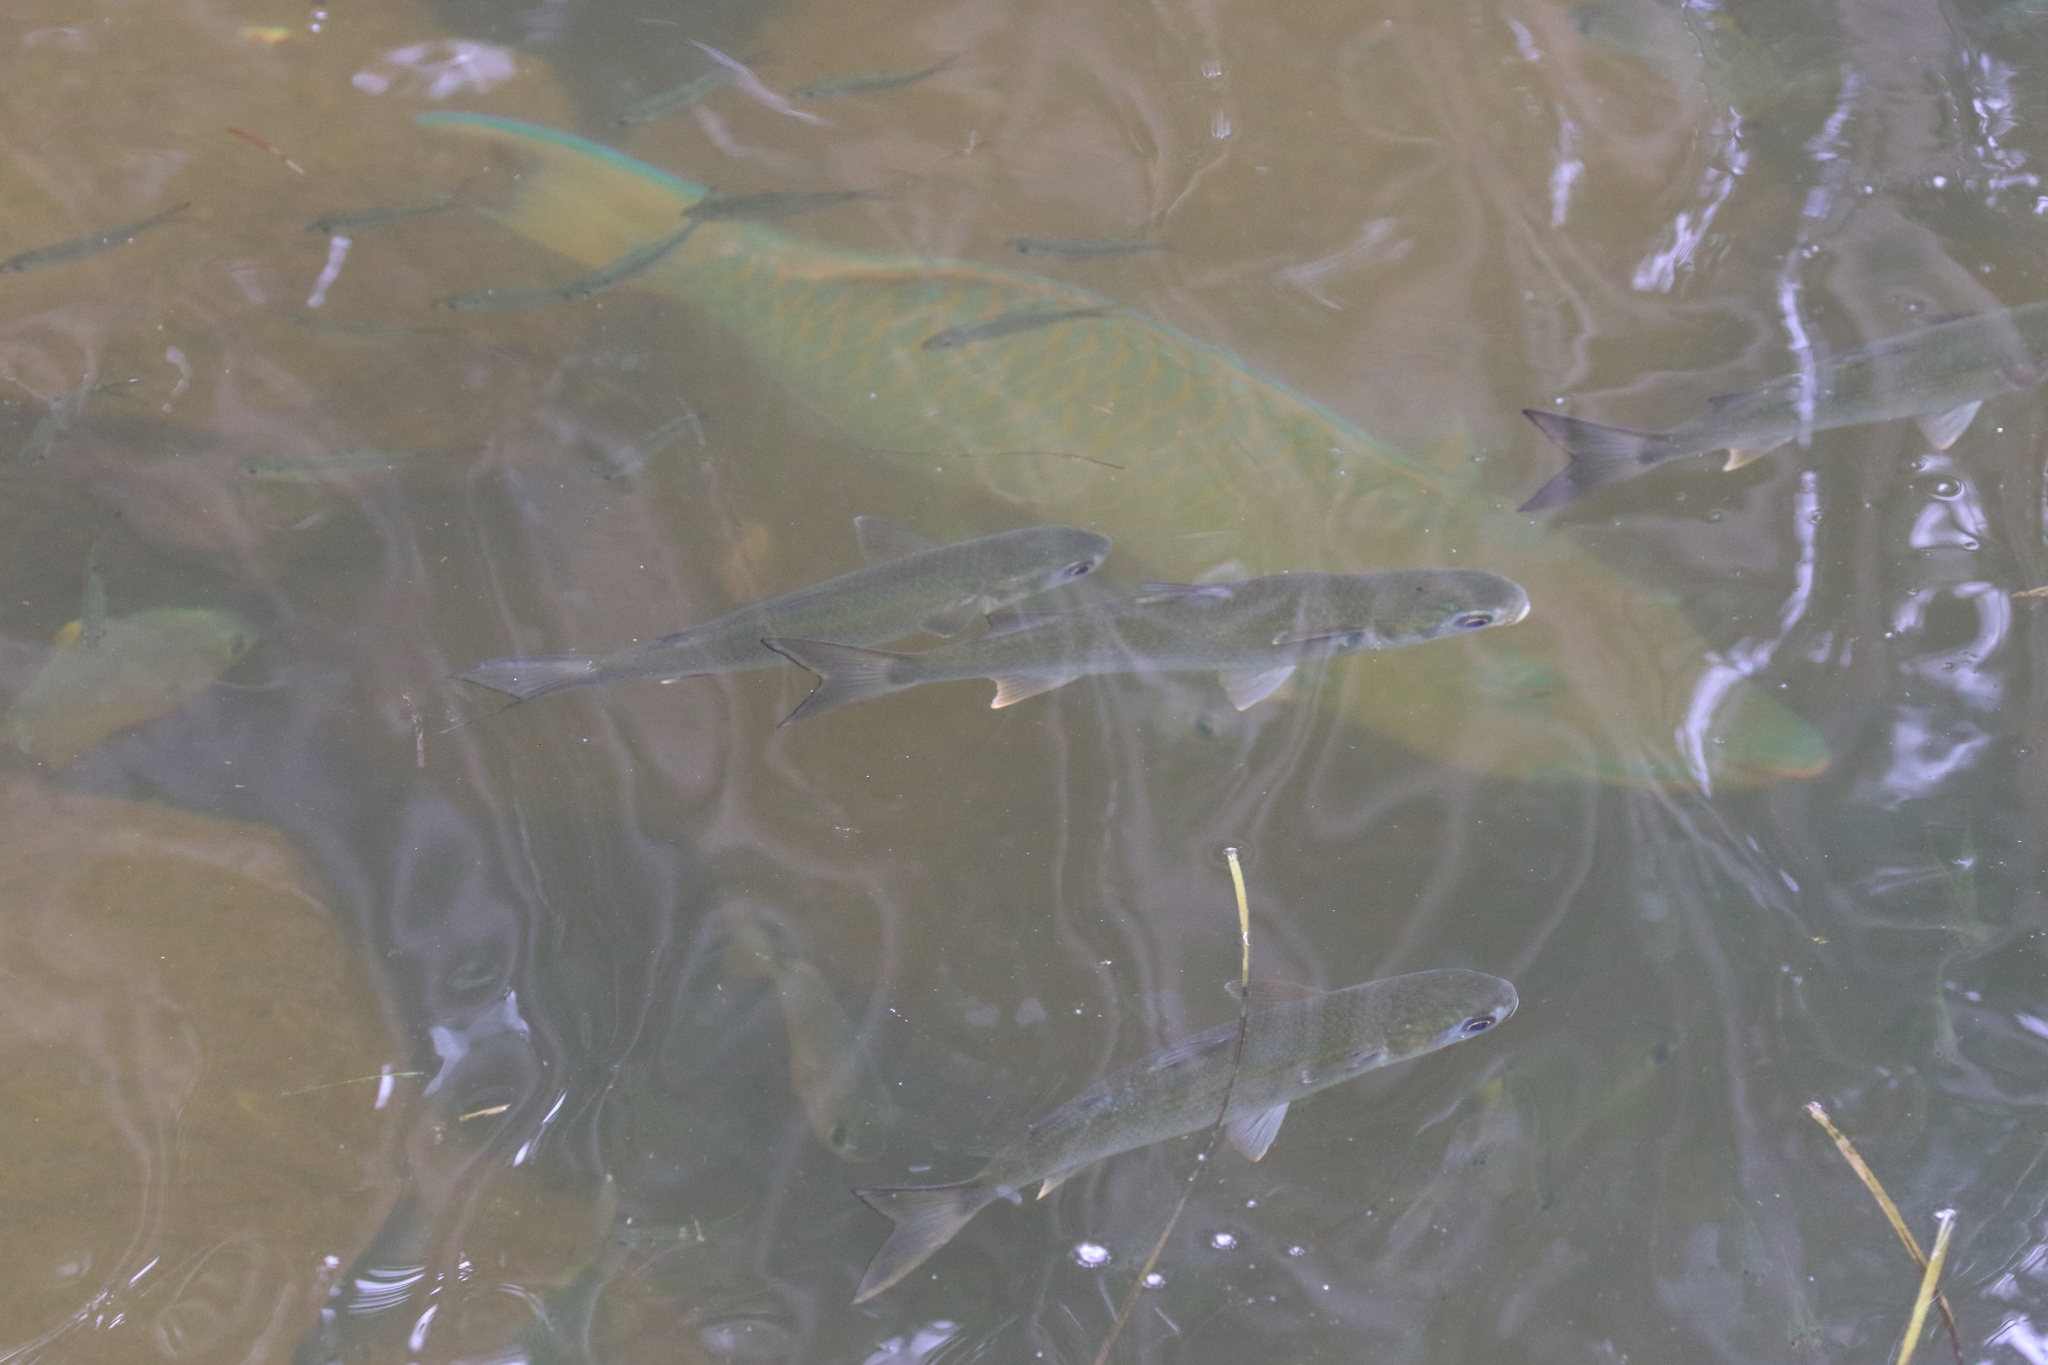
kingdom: Animalia
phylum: Chordata
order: Mugiliformes
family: Mugilidae
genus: Mugil
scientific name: Mugil cephalus
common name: Grey mullet
